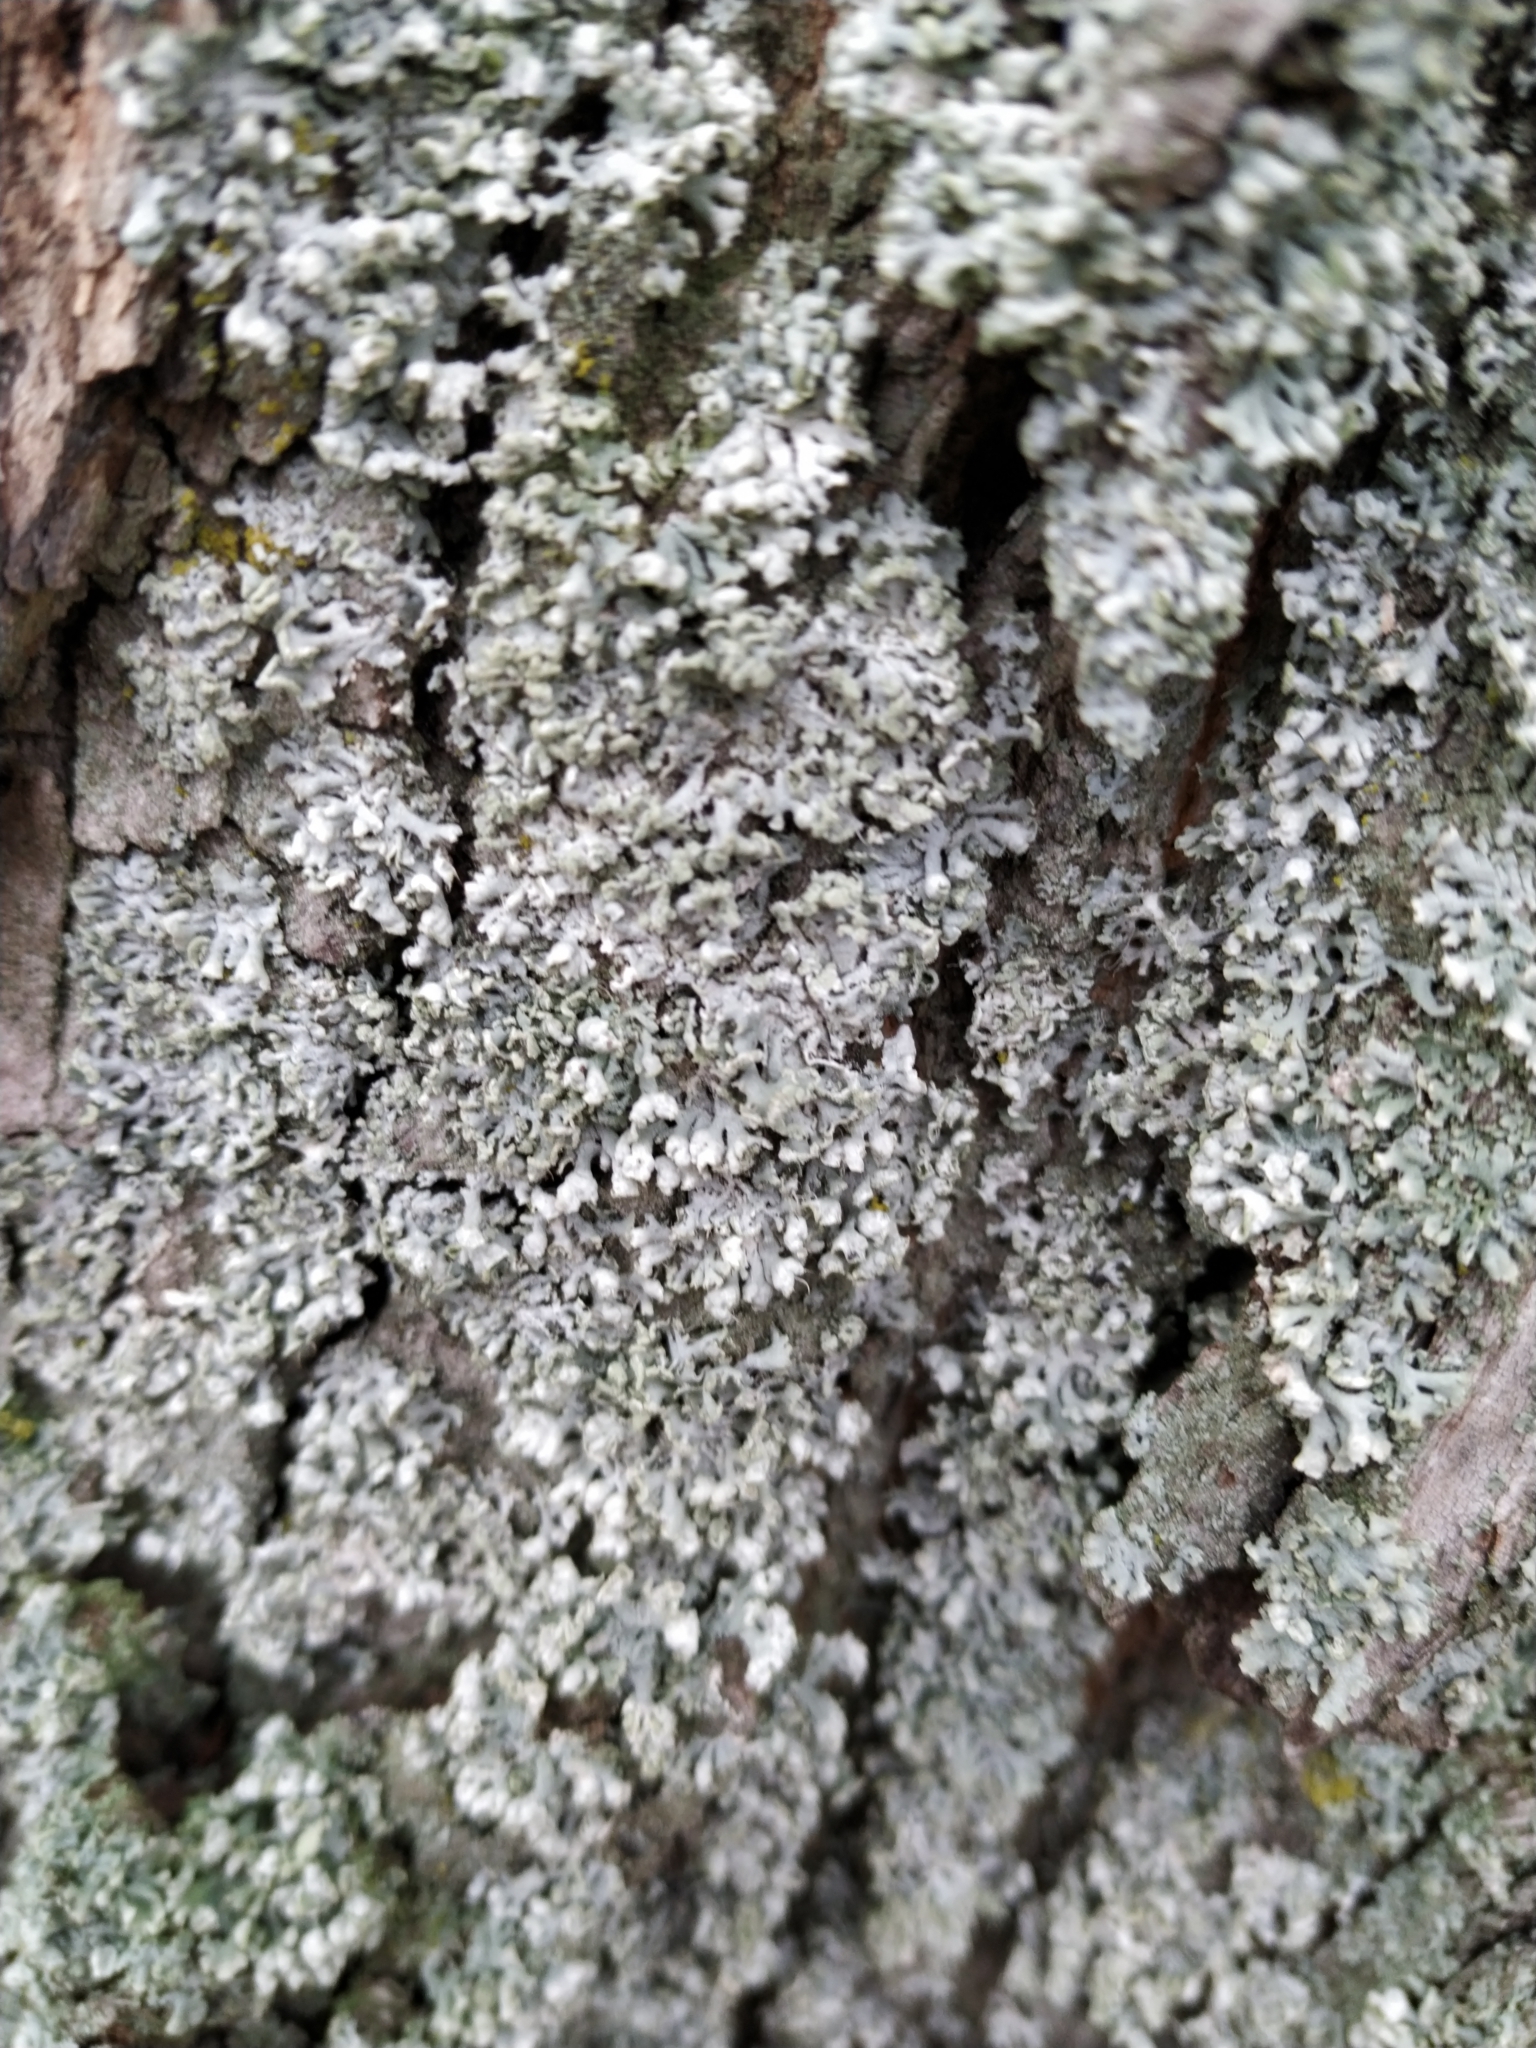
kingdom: Fungi
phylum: Ascomycota
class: Lecanoromycetes
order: Caliciales
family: Physciaceae
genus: Physcia
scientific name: Physcia adscendens
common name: Hooded rosette lichen
